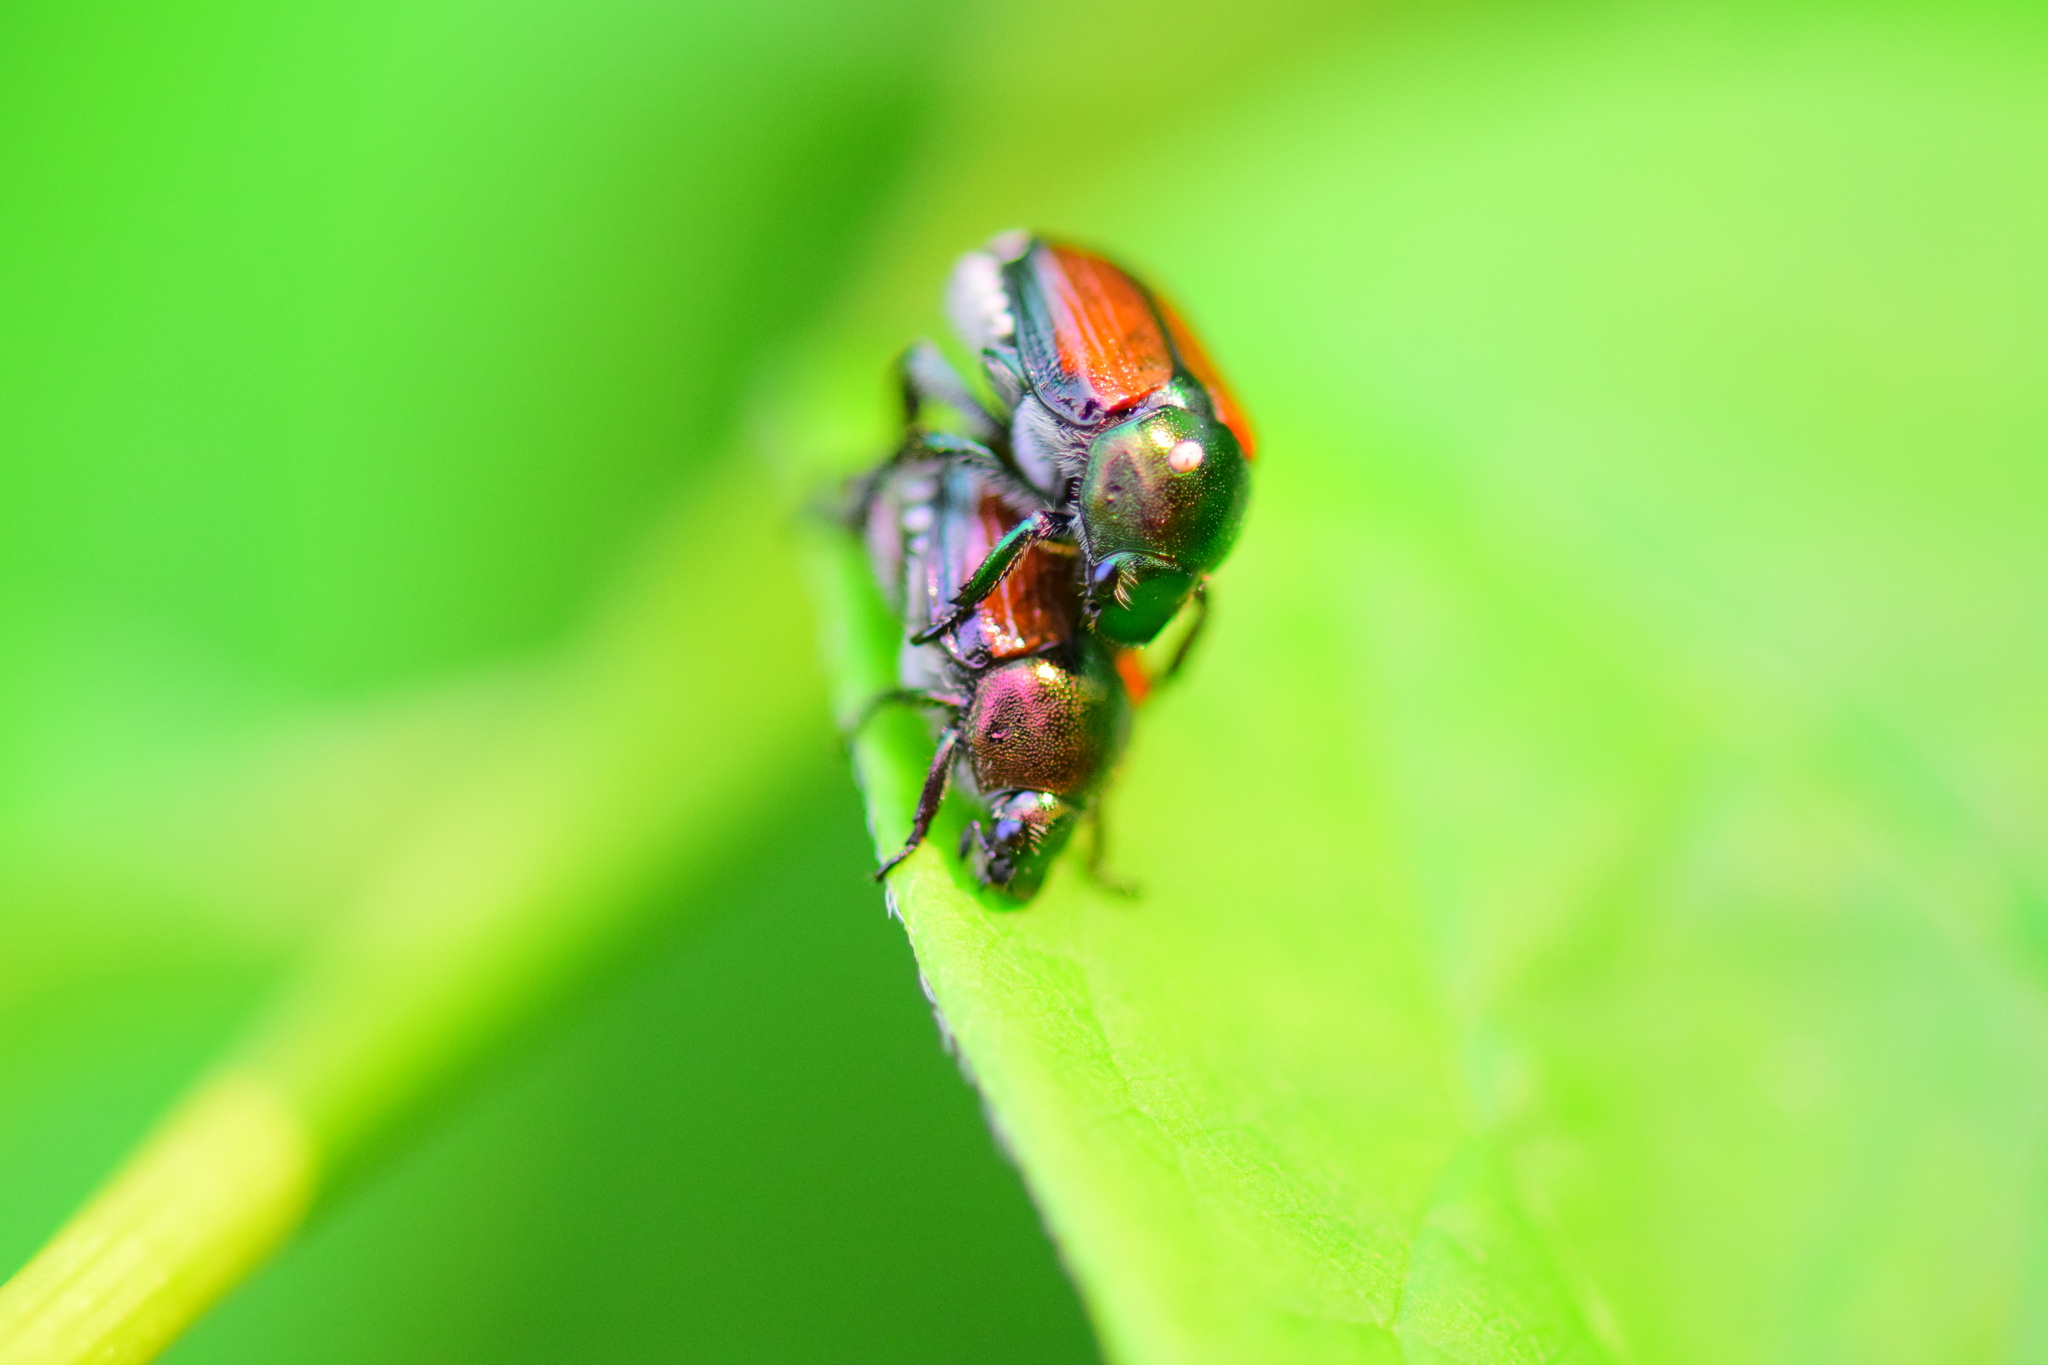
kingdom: Animalia
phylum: Arthropoda
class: Insecta
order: Coleoptera
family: Scarabaeidae
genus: Popillia
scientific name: Popillia japonica
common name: Japanese beetle
